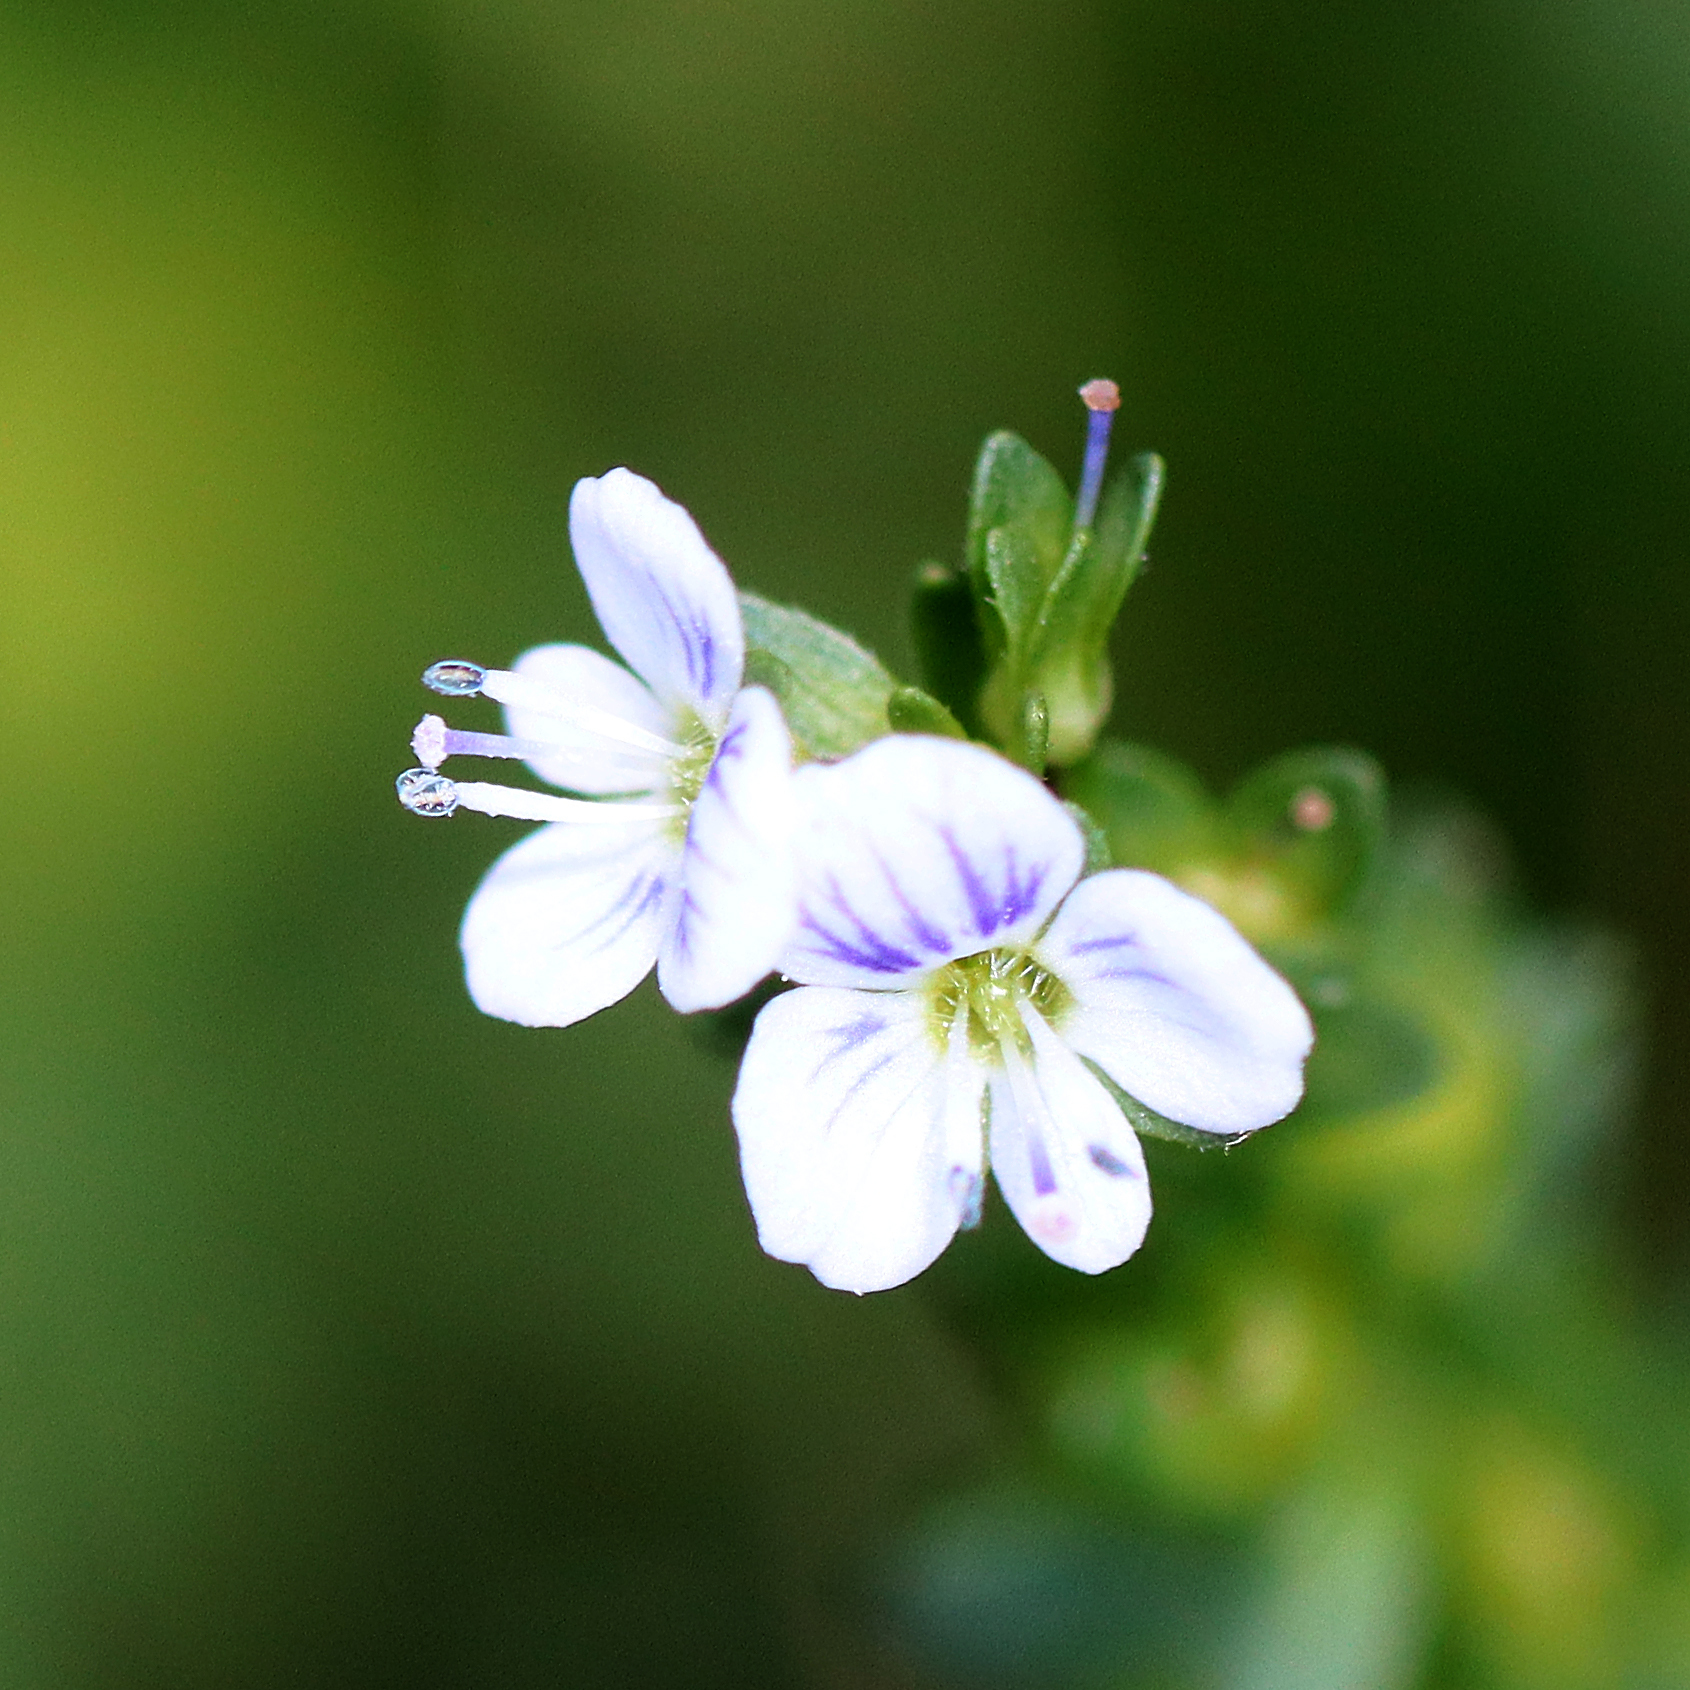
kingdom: Plantae
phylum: Tracheophyta
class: Magnoliopsida
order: Lamiales
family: Plantaginaceae
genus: Veronica
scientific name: Veronica serpyllifolia
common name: Thyme-leaved speedwell
